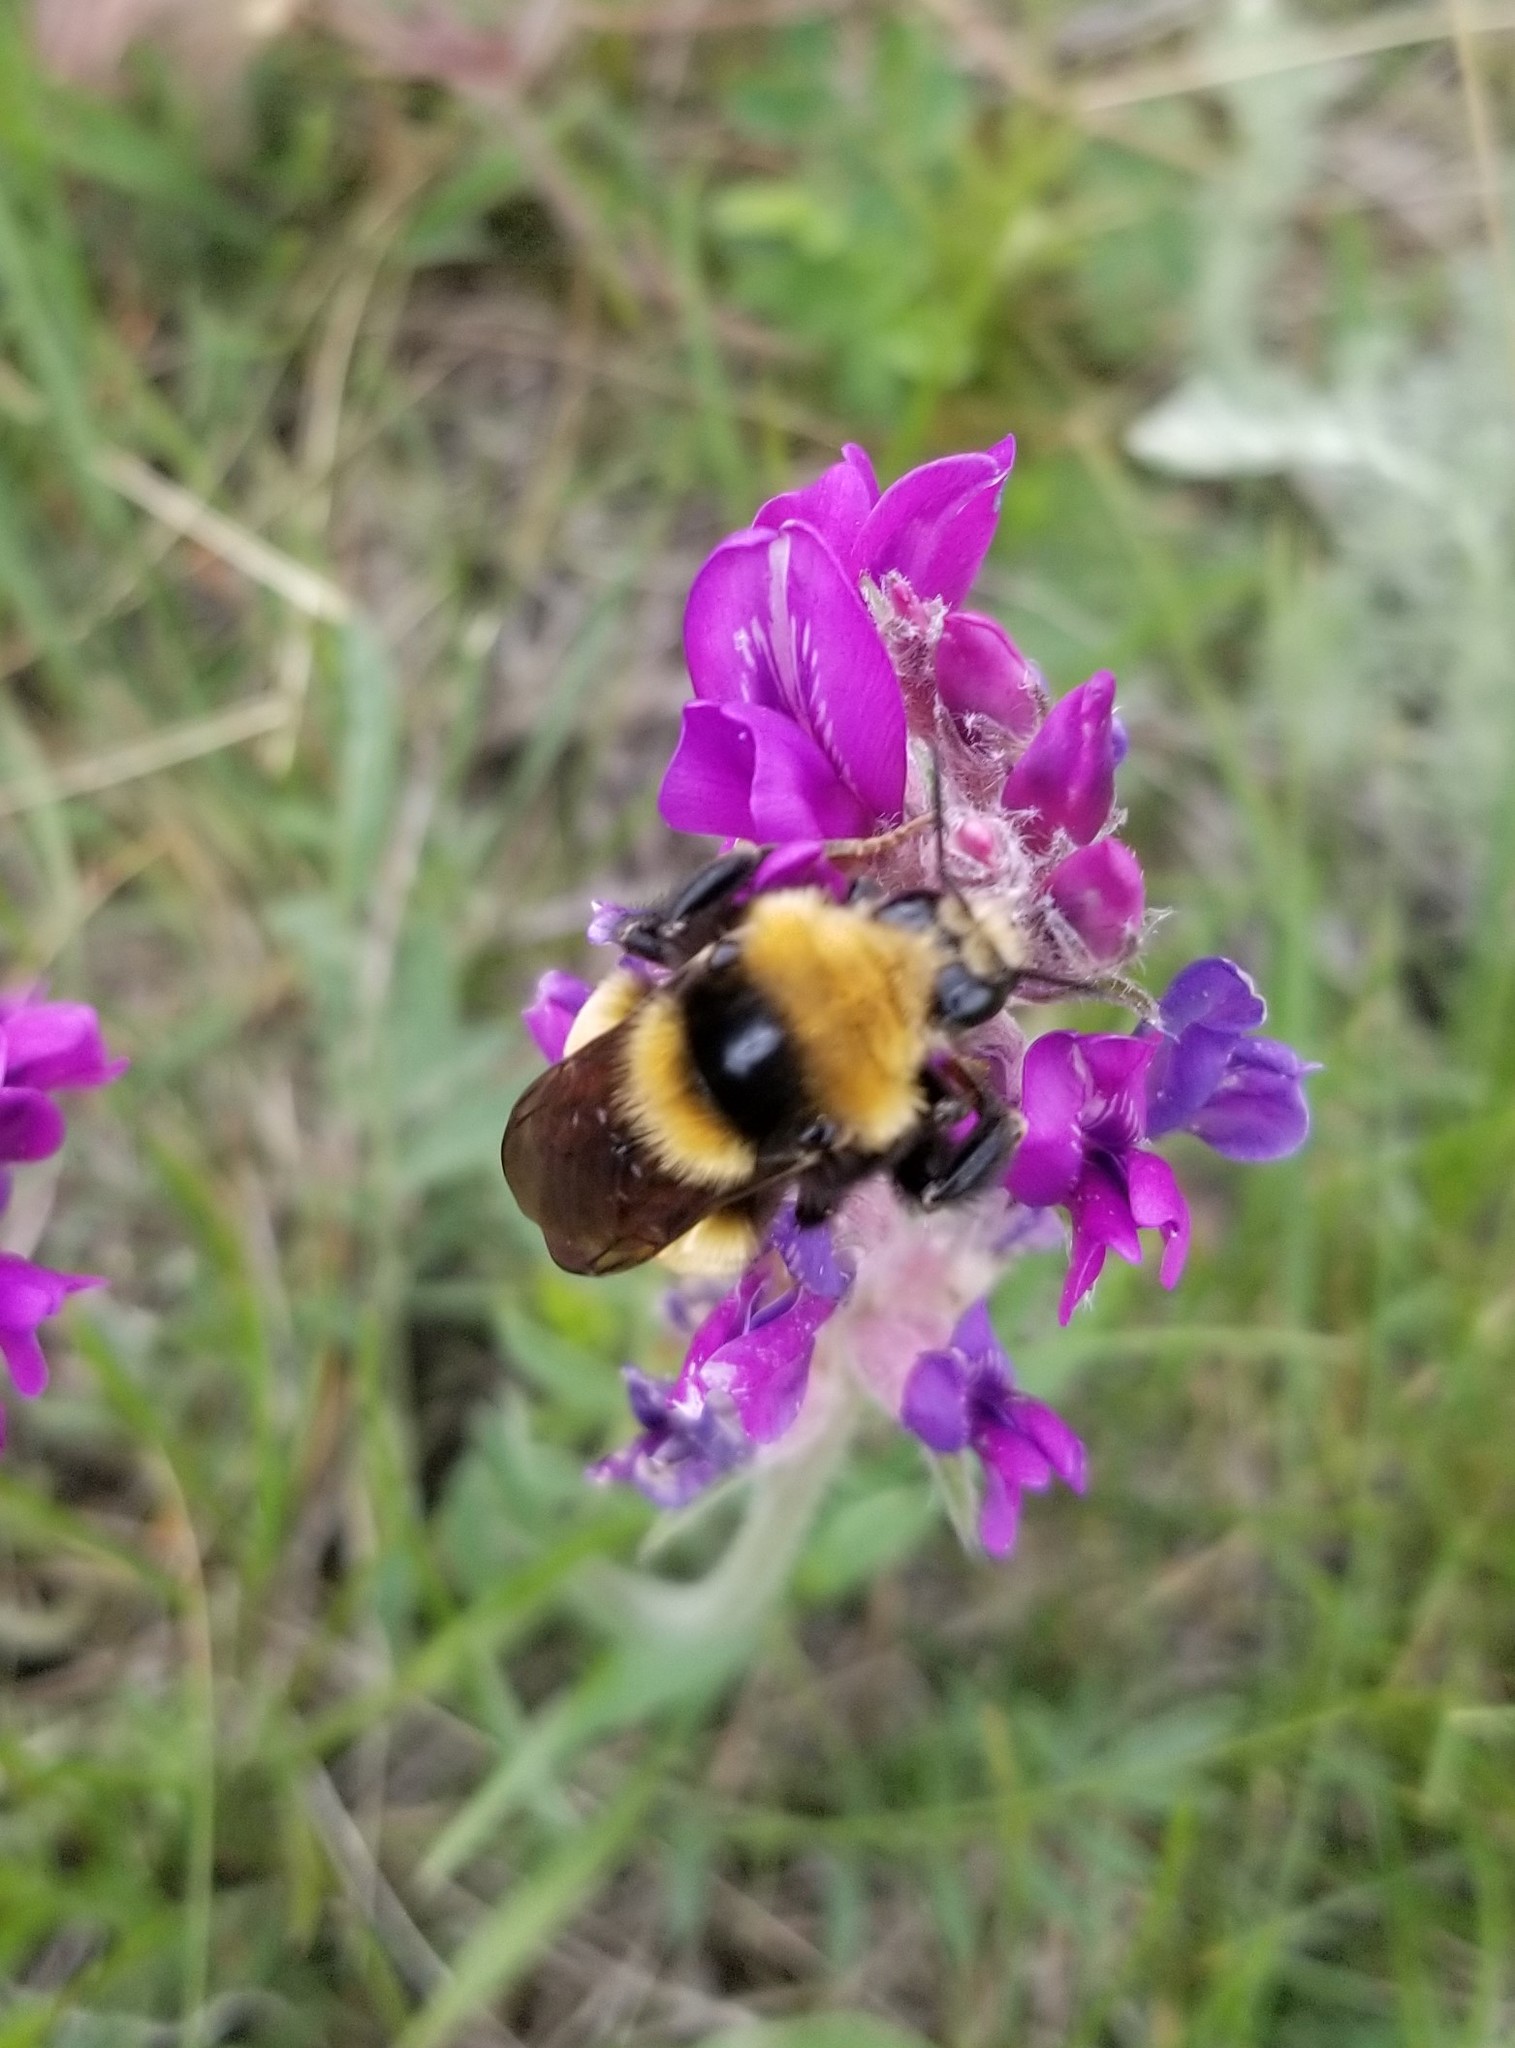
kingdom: Animalia
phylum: Arthropoda
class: Insecta
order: Hymenoptera
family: Apidae
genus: Bombus
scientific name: Bombus borealis
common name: Northern amber bumble bee
